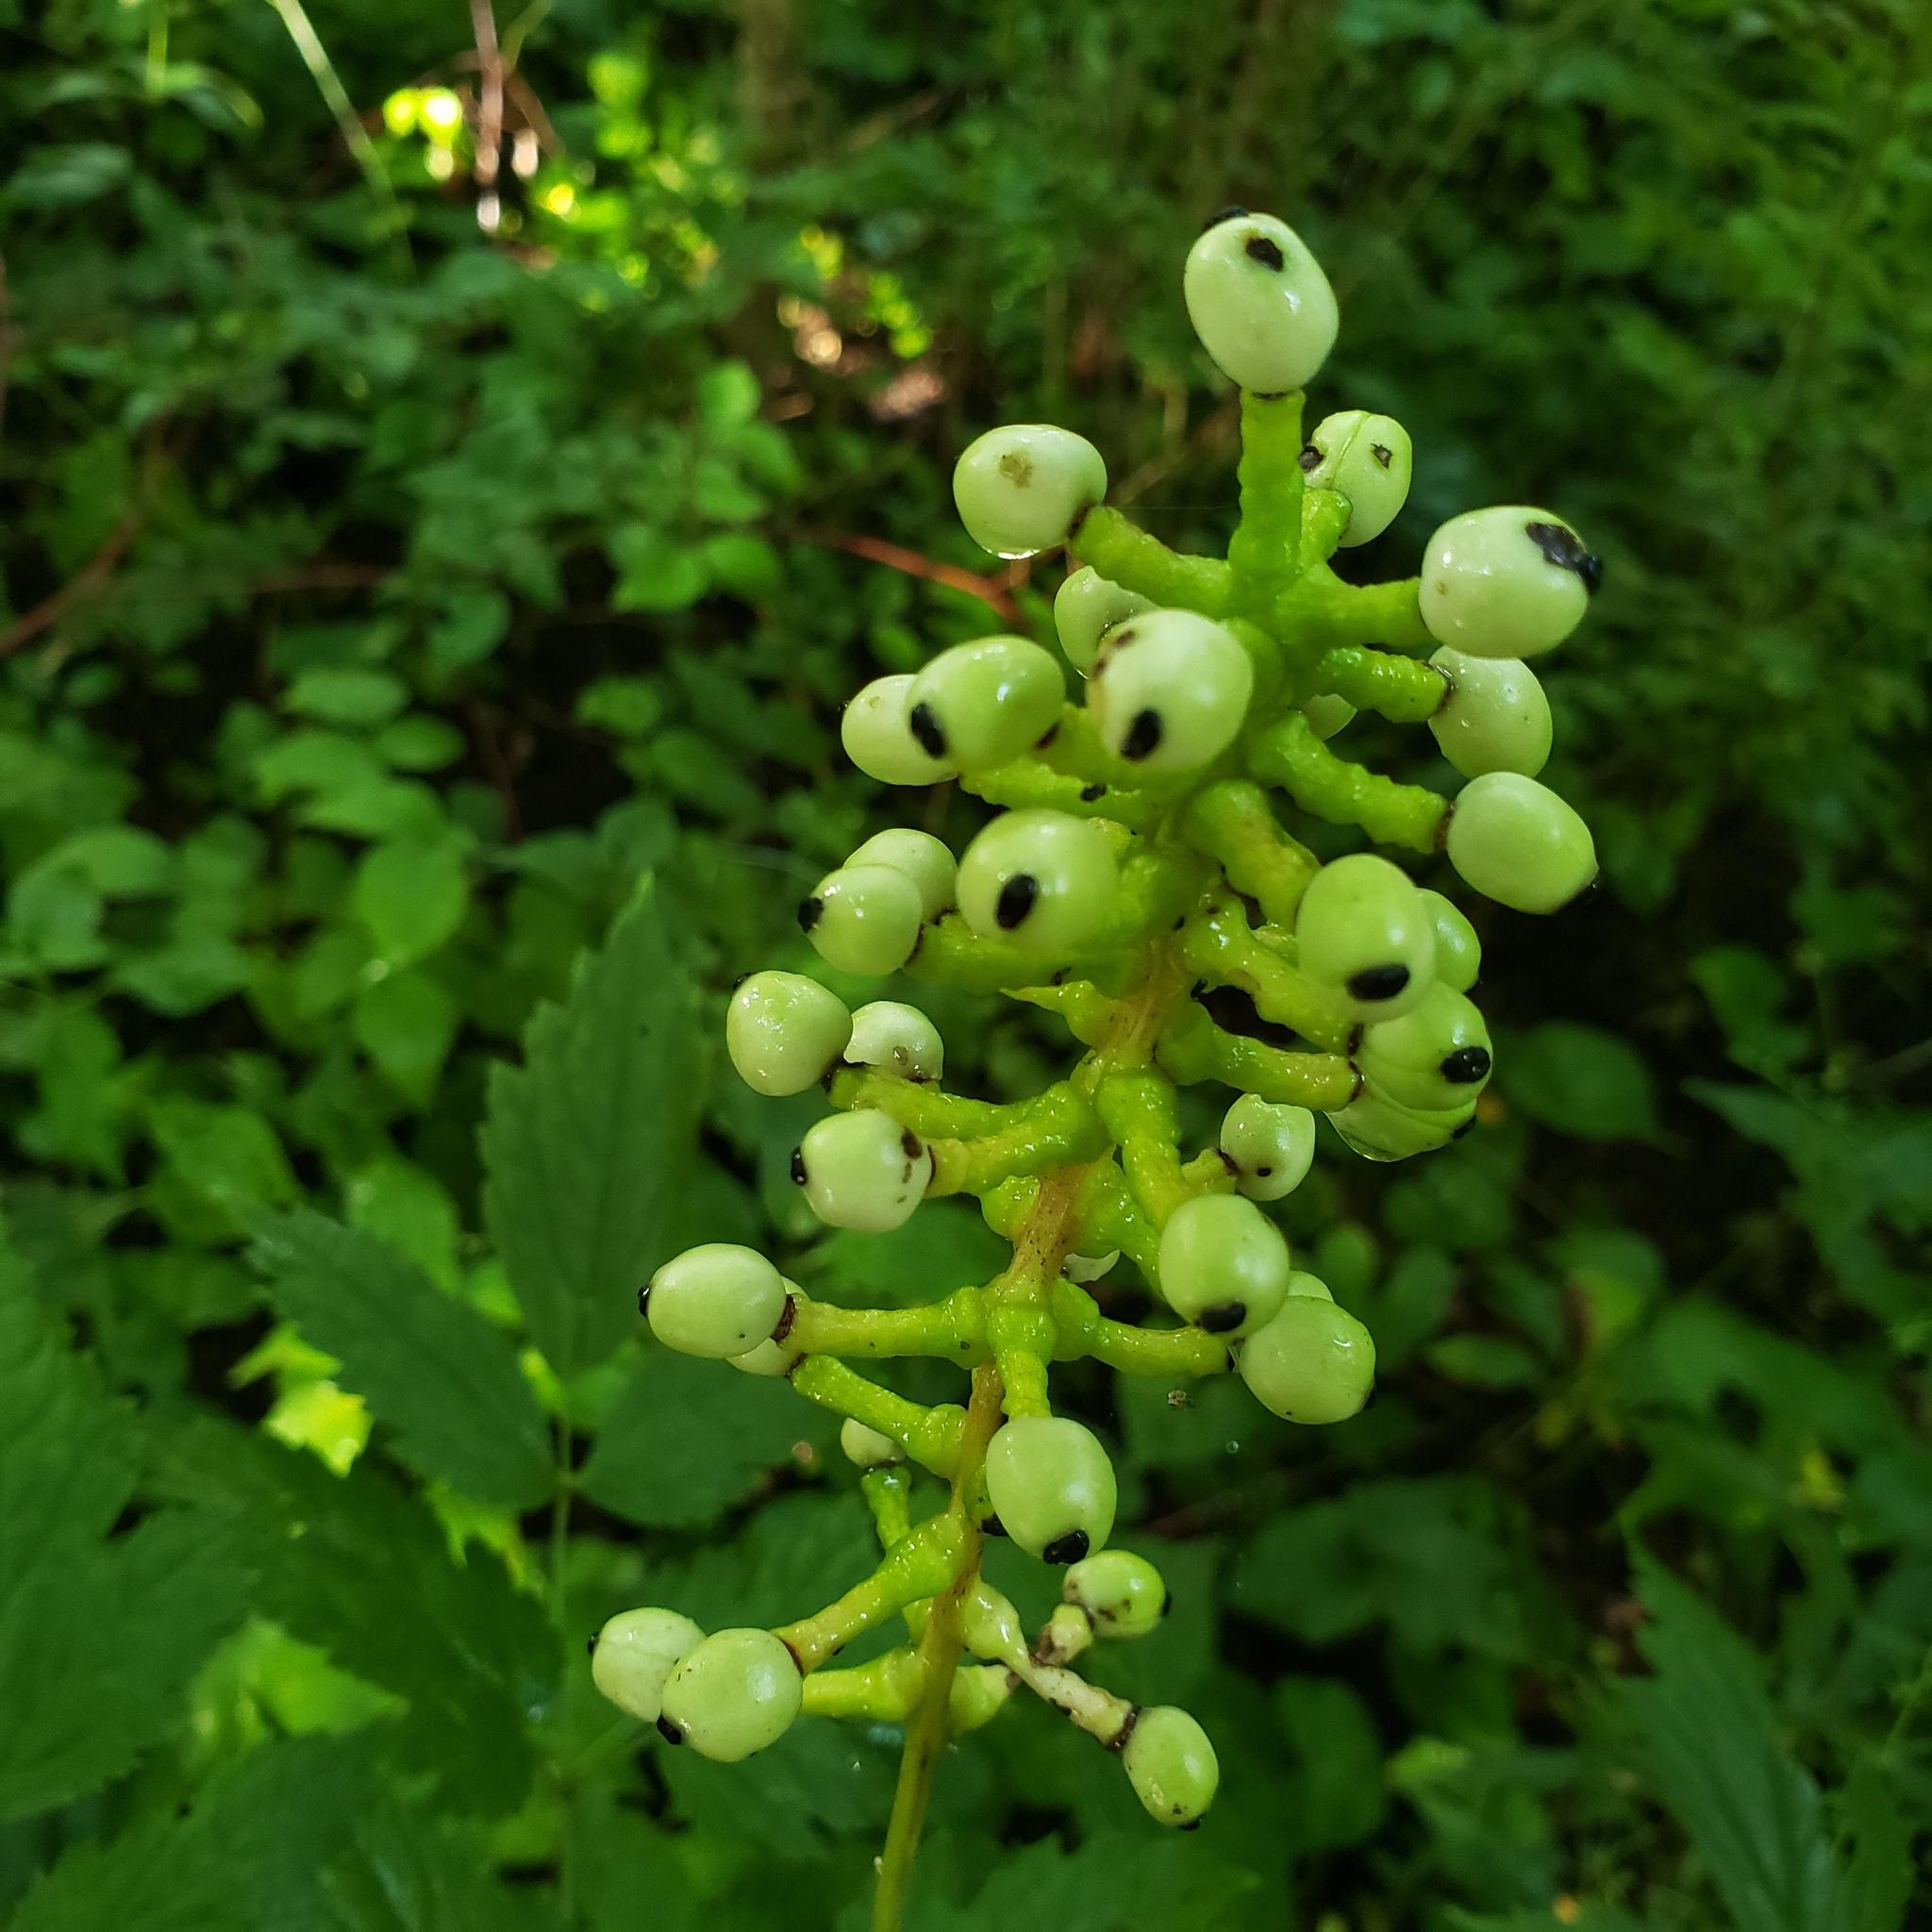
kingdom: Plantae
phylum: Tracheophyta
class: Magnoliopsida
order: Ranunculales
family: Ranunculaceae
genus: Actaea
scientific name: Actaea pachypoda
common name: Doll's-eyes
